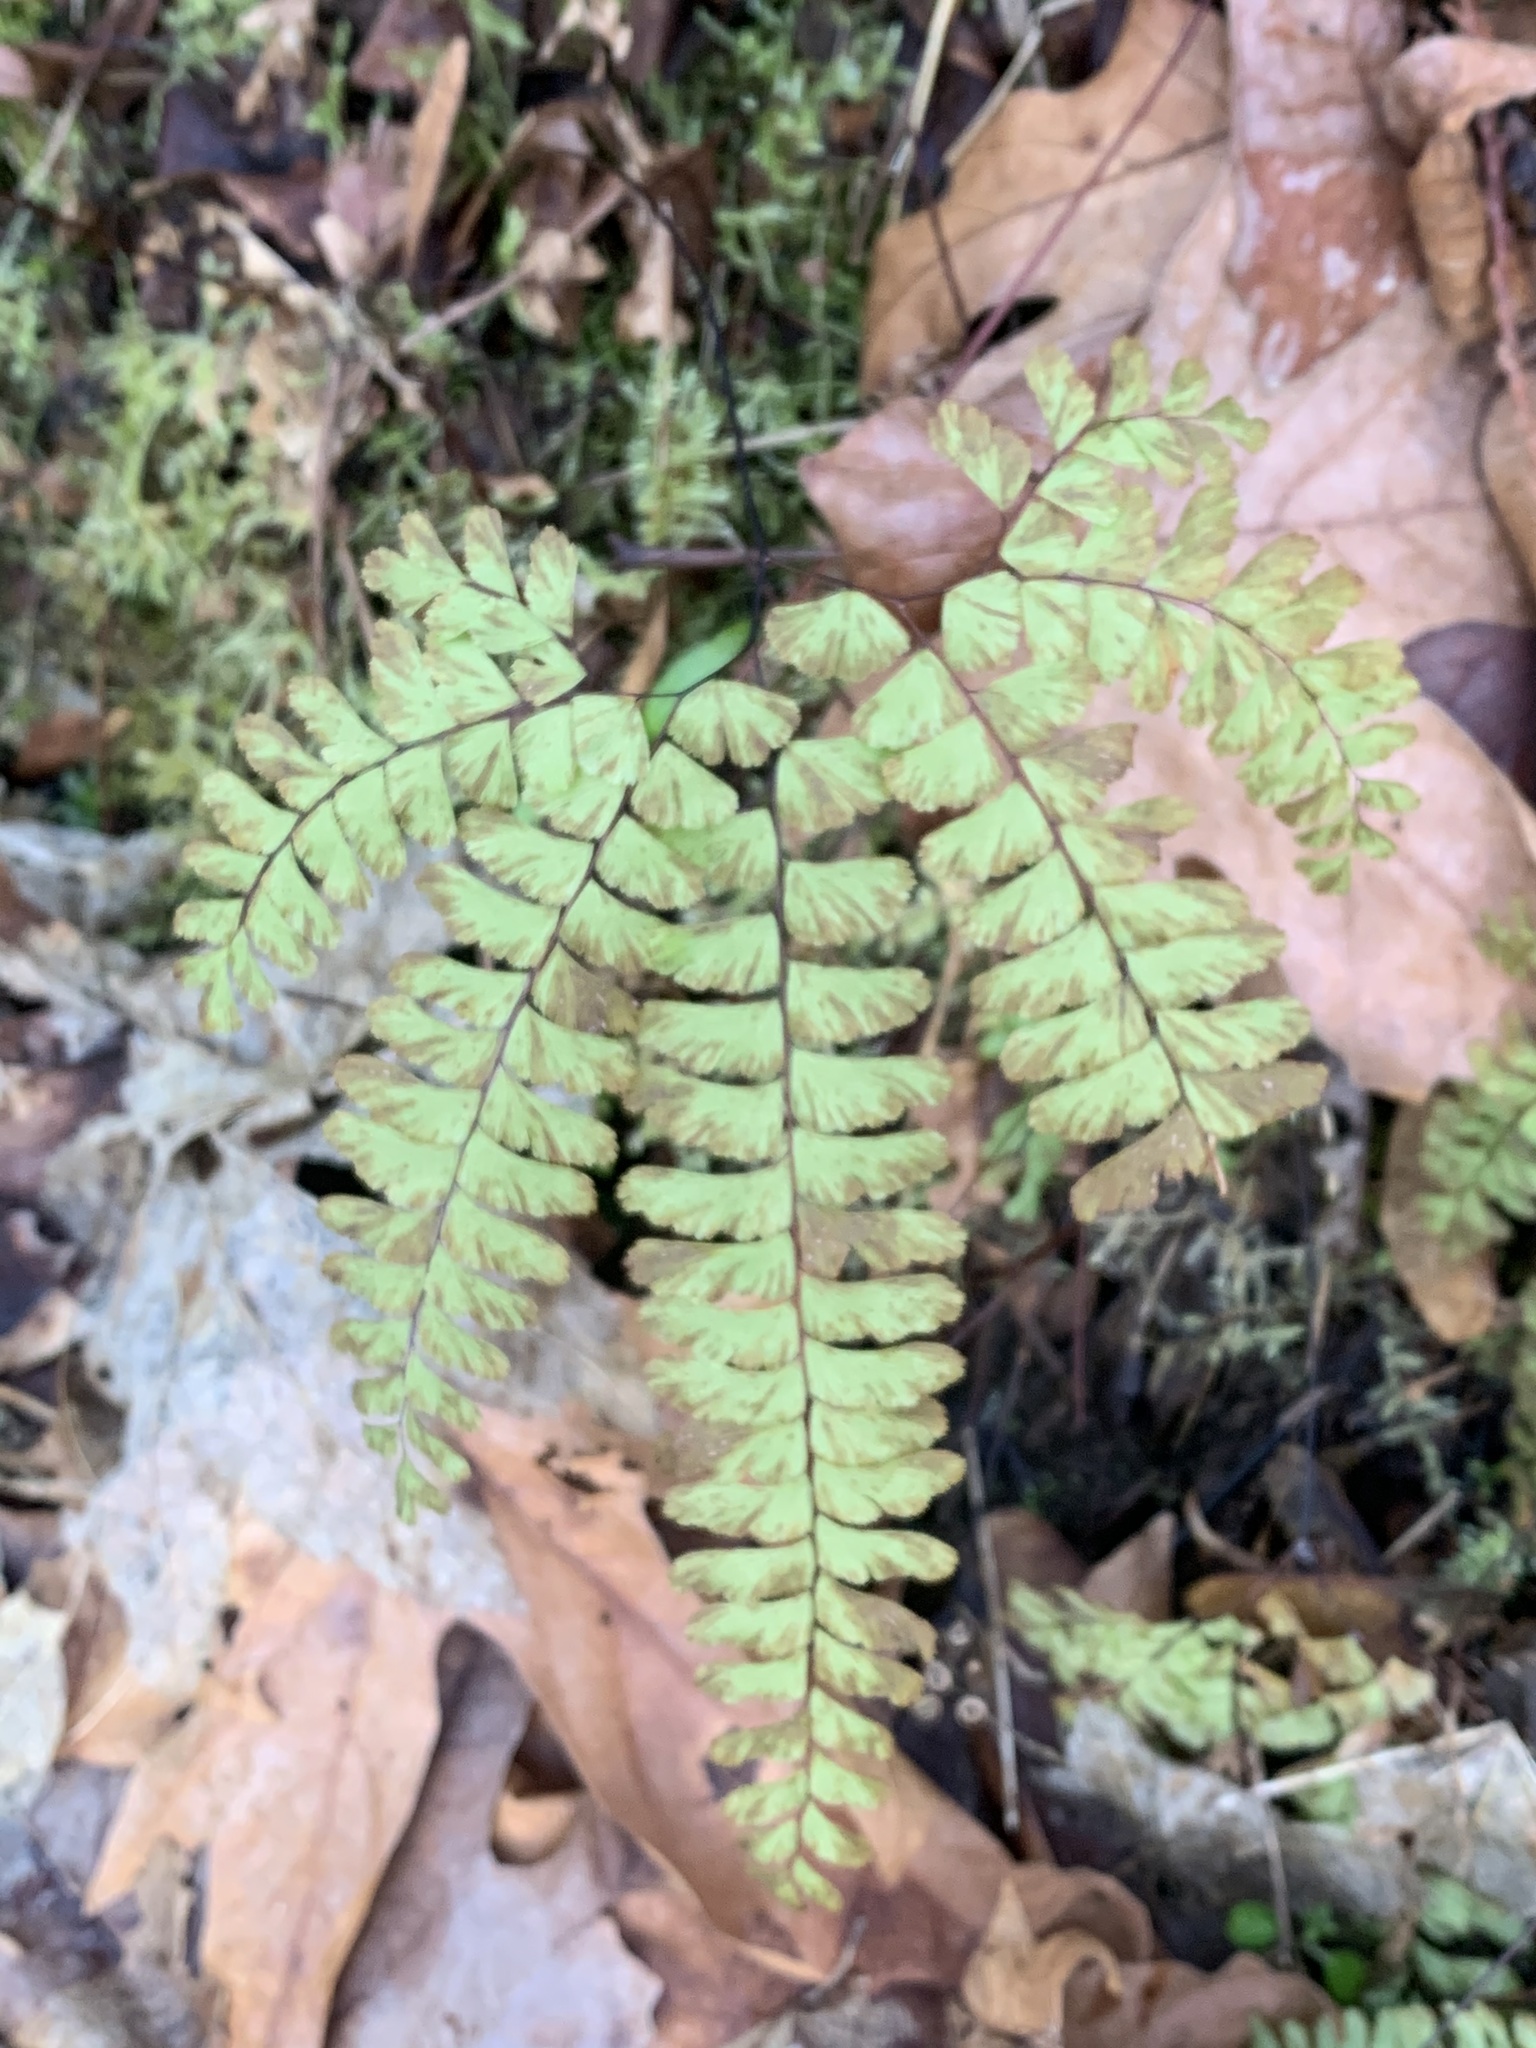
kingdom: Plantae
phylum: Tracheophyta
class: Polypodiopsida
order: Polypodiales
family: Pteridaceae
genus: Adiantum
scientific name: Adiantum aleuticum
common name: Aleutian maidenhair fern
